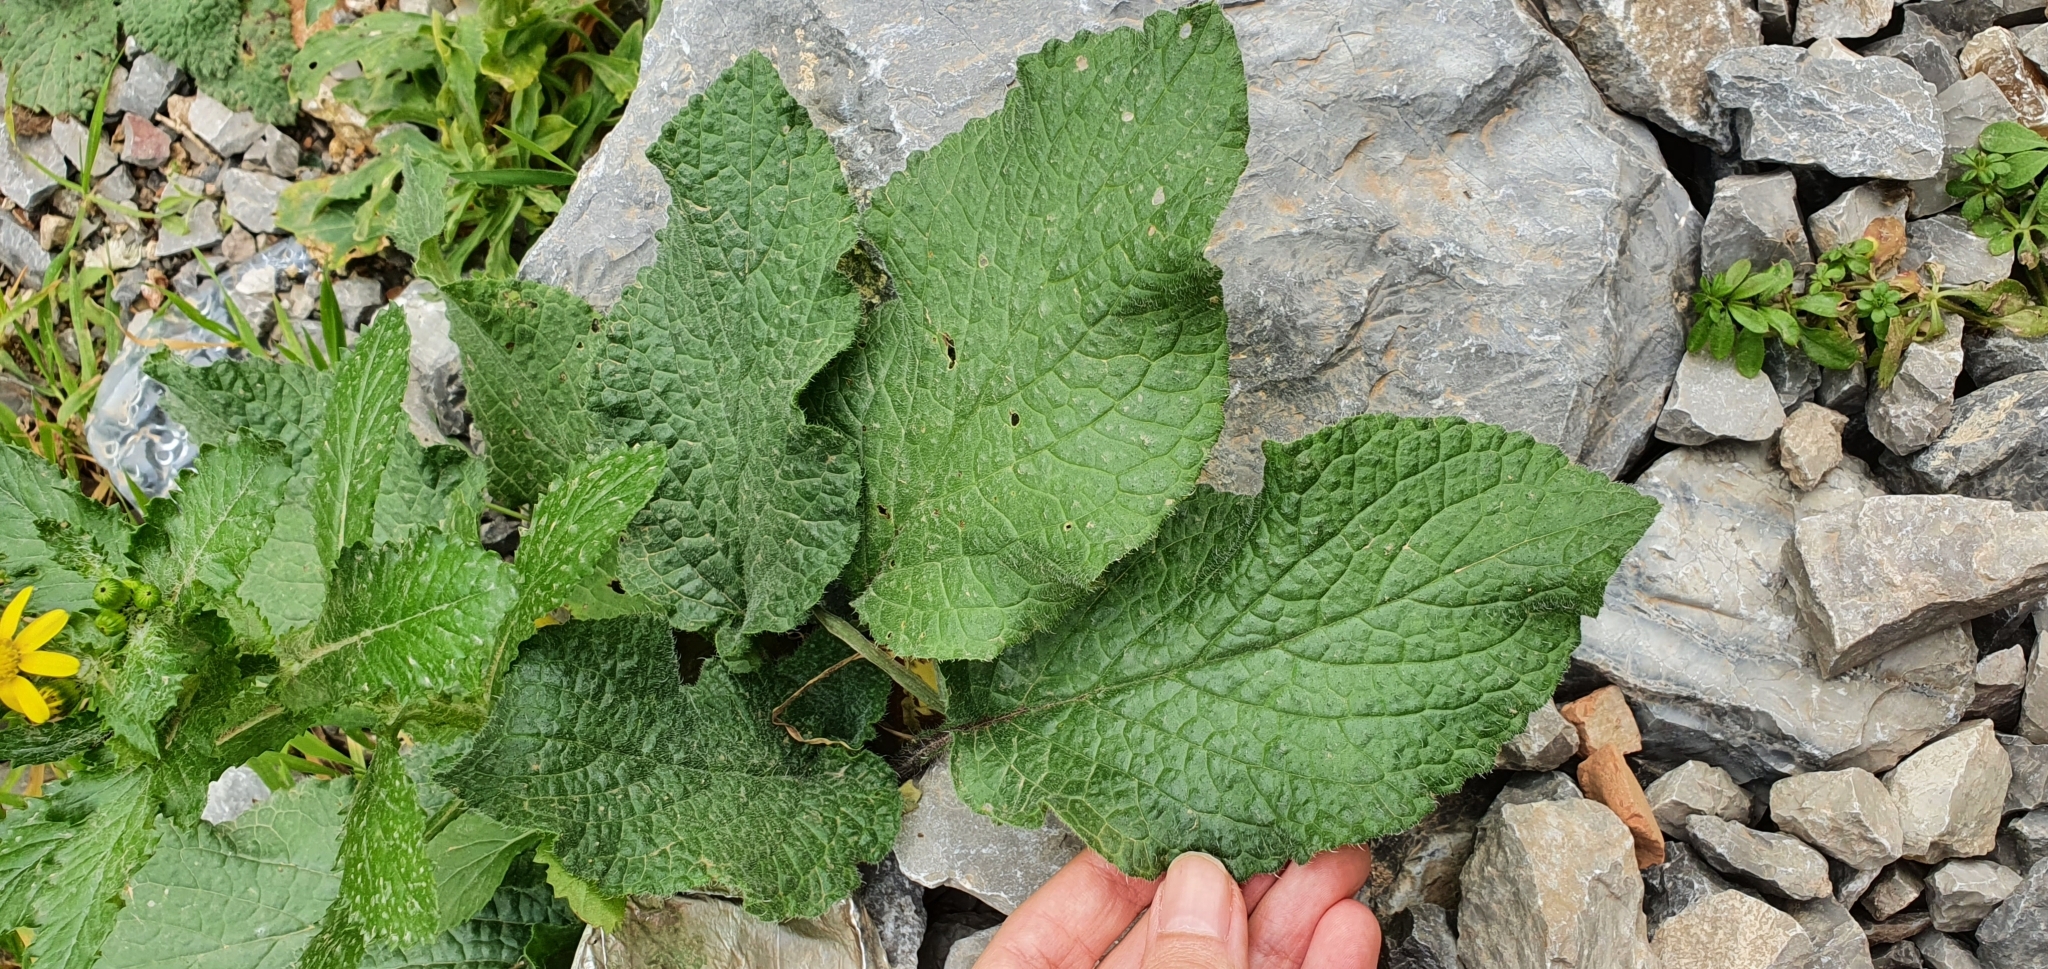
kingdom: Plantae
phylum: Tracheophyta
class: Magnoliopsida
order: Boraginales
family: Boraginaceae
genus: Borago
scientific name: Borago officinalis
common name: Borage
